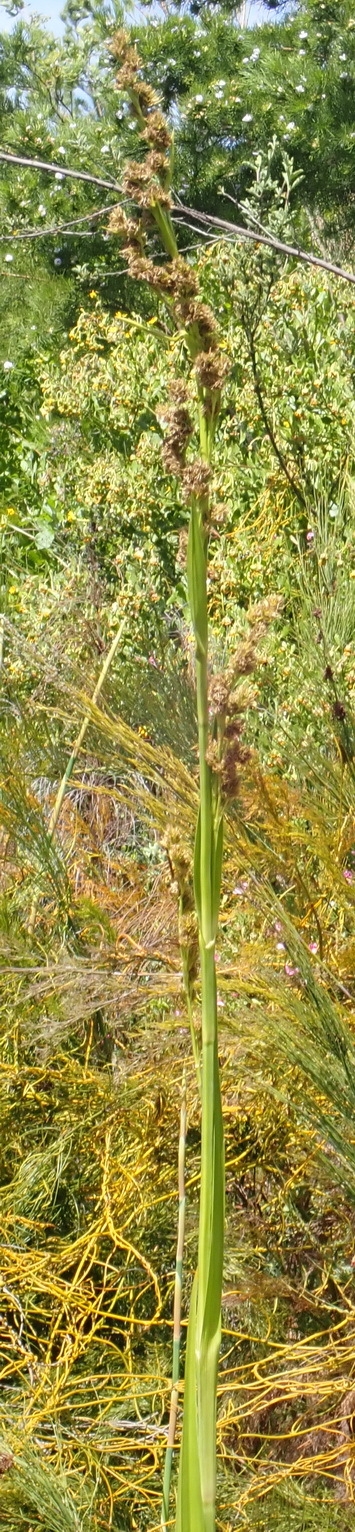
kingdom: Plantae
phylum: Tracheophyta
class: Liliopsida
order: Poales
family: Cyperaceae
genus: Carpha
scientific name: Carpha glomerata
